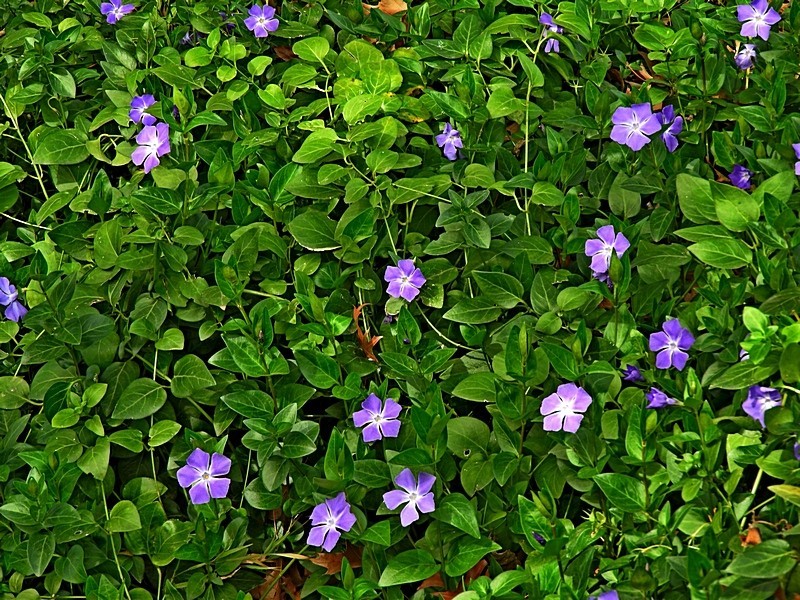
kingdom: Plantae
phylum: Tracheophyta
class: Magnoliopsida
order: Gentianales
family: Apocynaceae
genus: Vinca
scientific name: Vinca major
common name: Greater periwinkle
